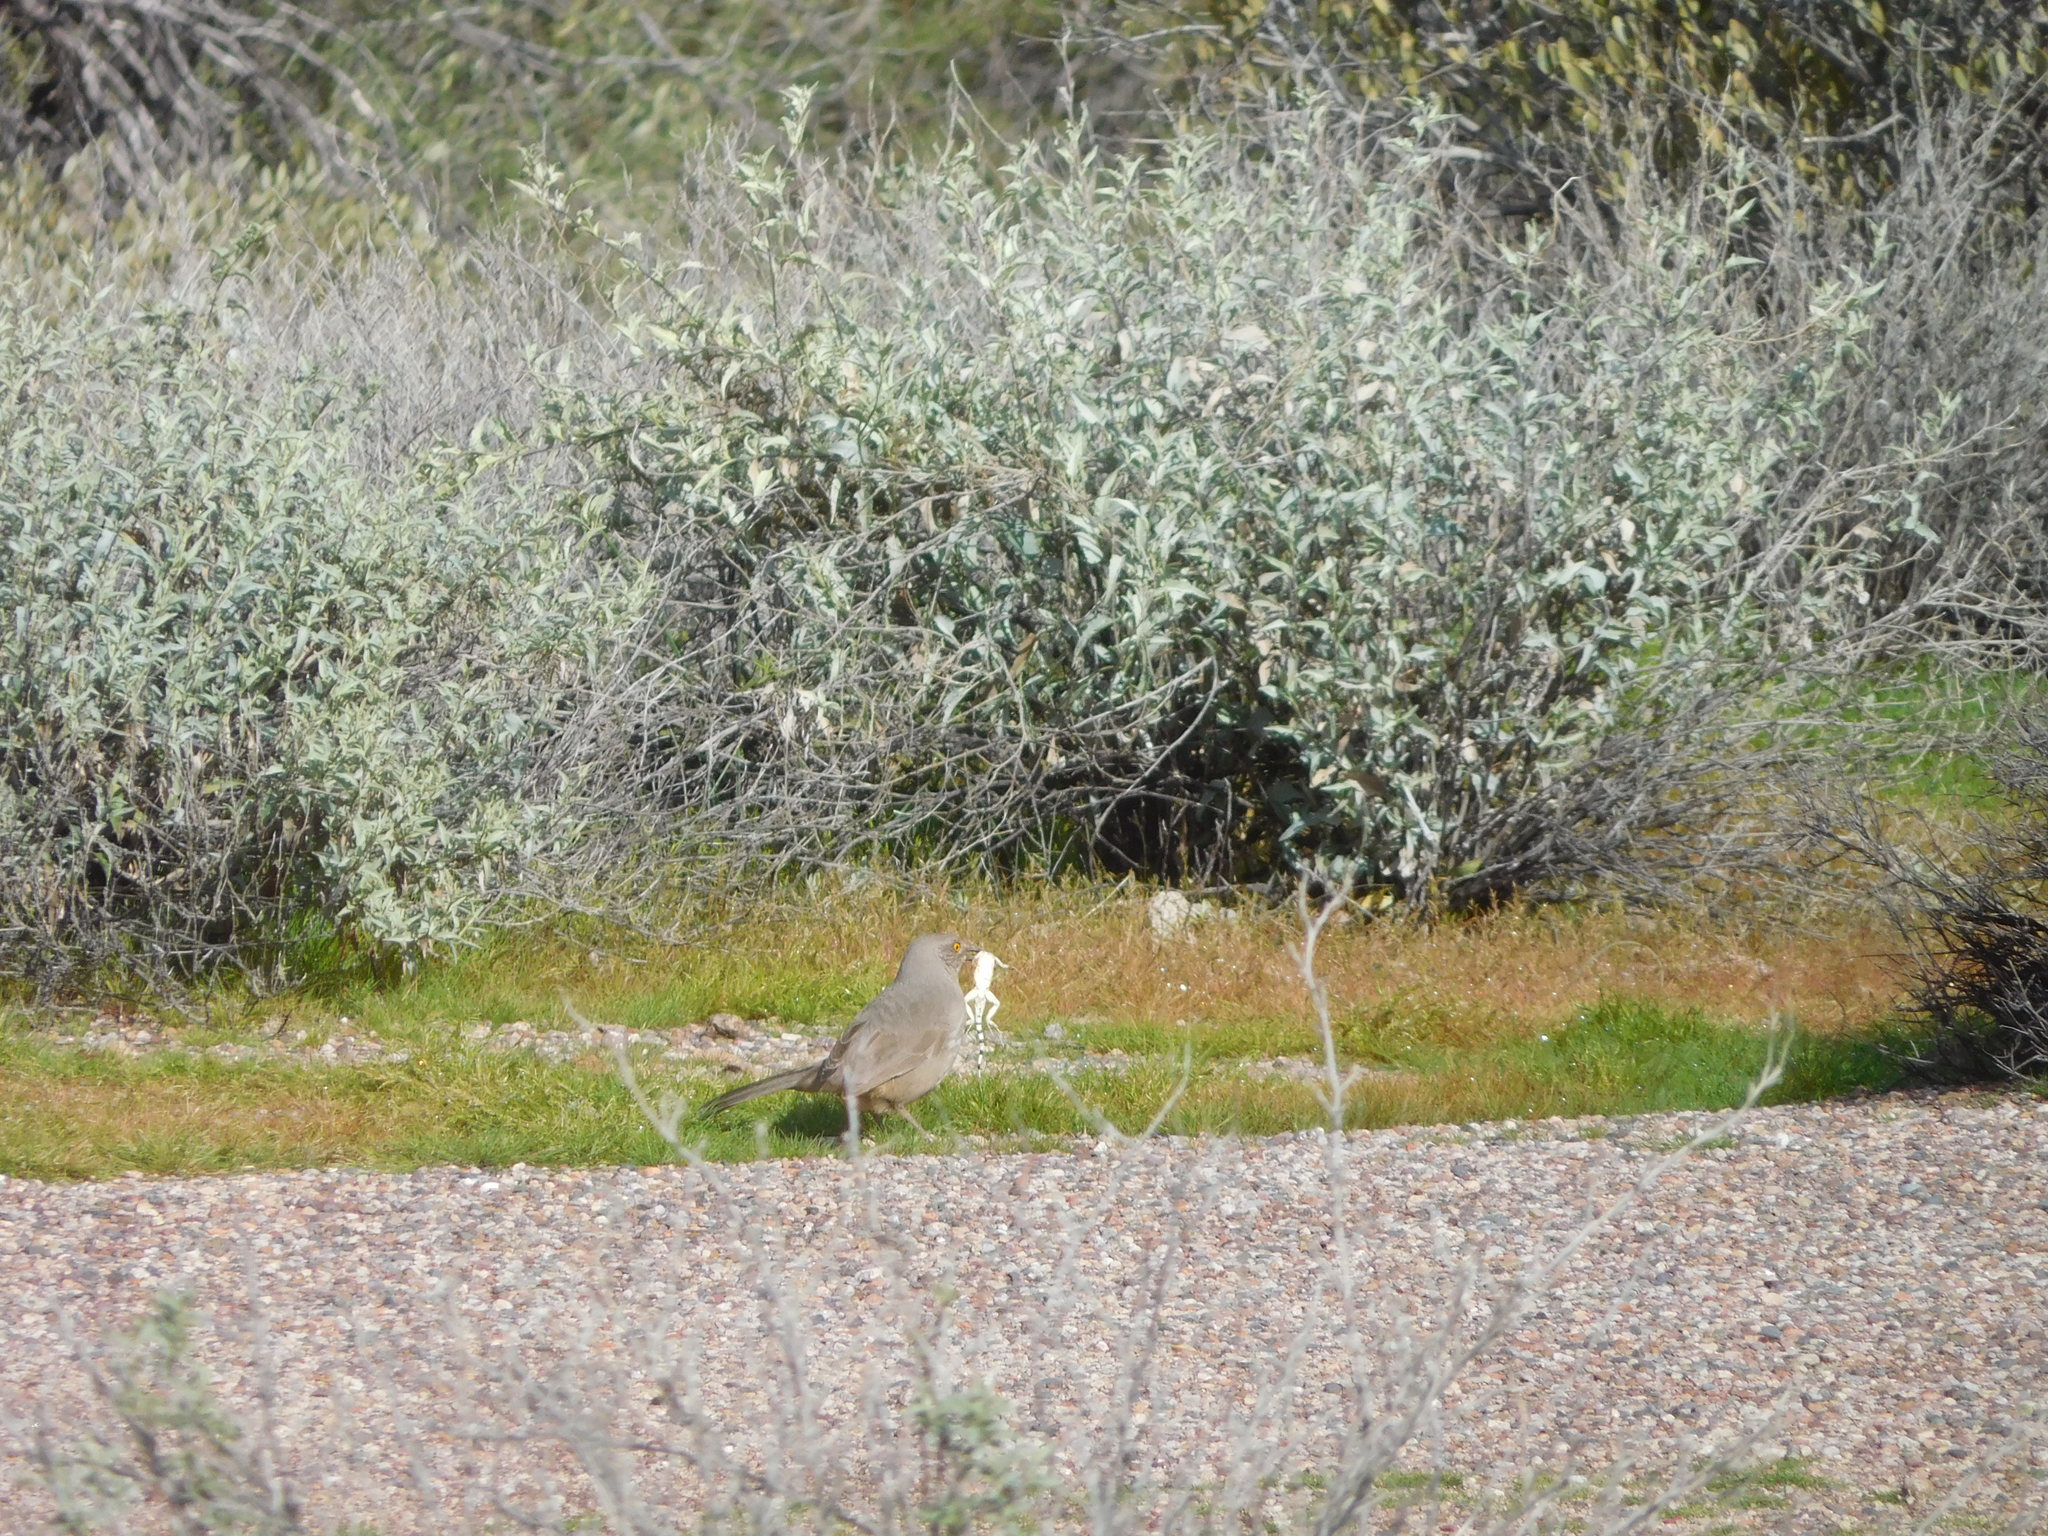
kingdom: Animalia
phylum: Chordata
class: Aves
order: Passeriformes
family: Mimidae
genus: Toxostoma
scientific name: Toxostoma curvirostre
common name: Curve-billed thrasher
